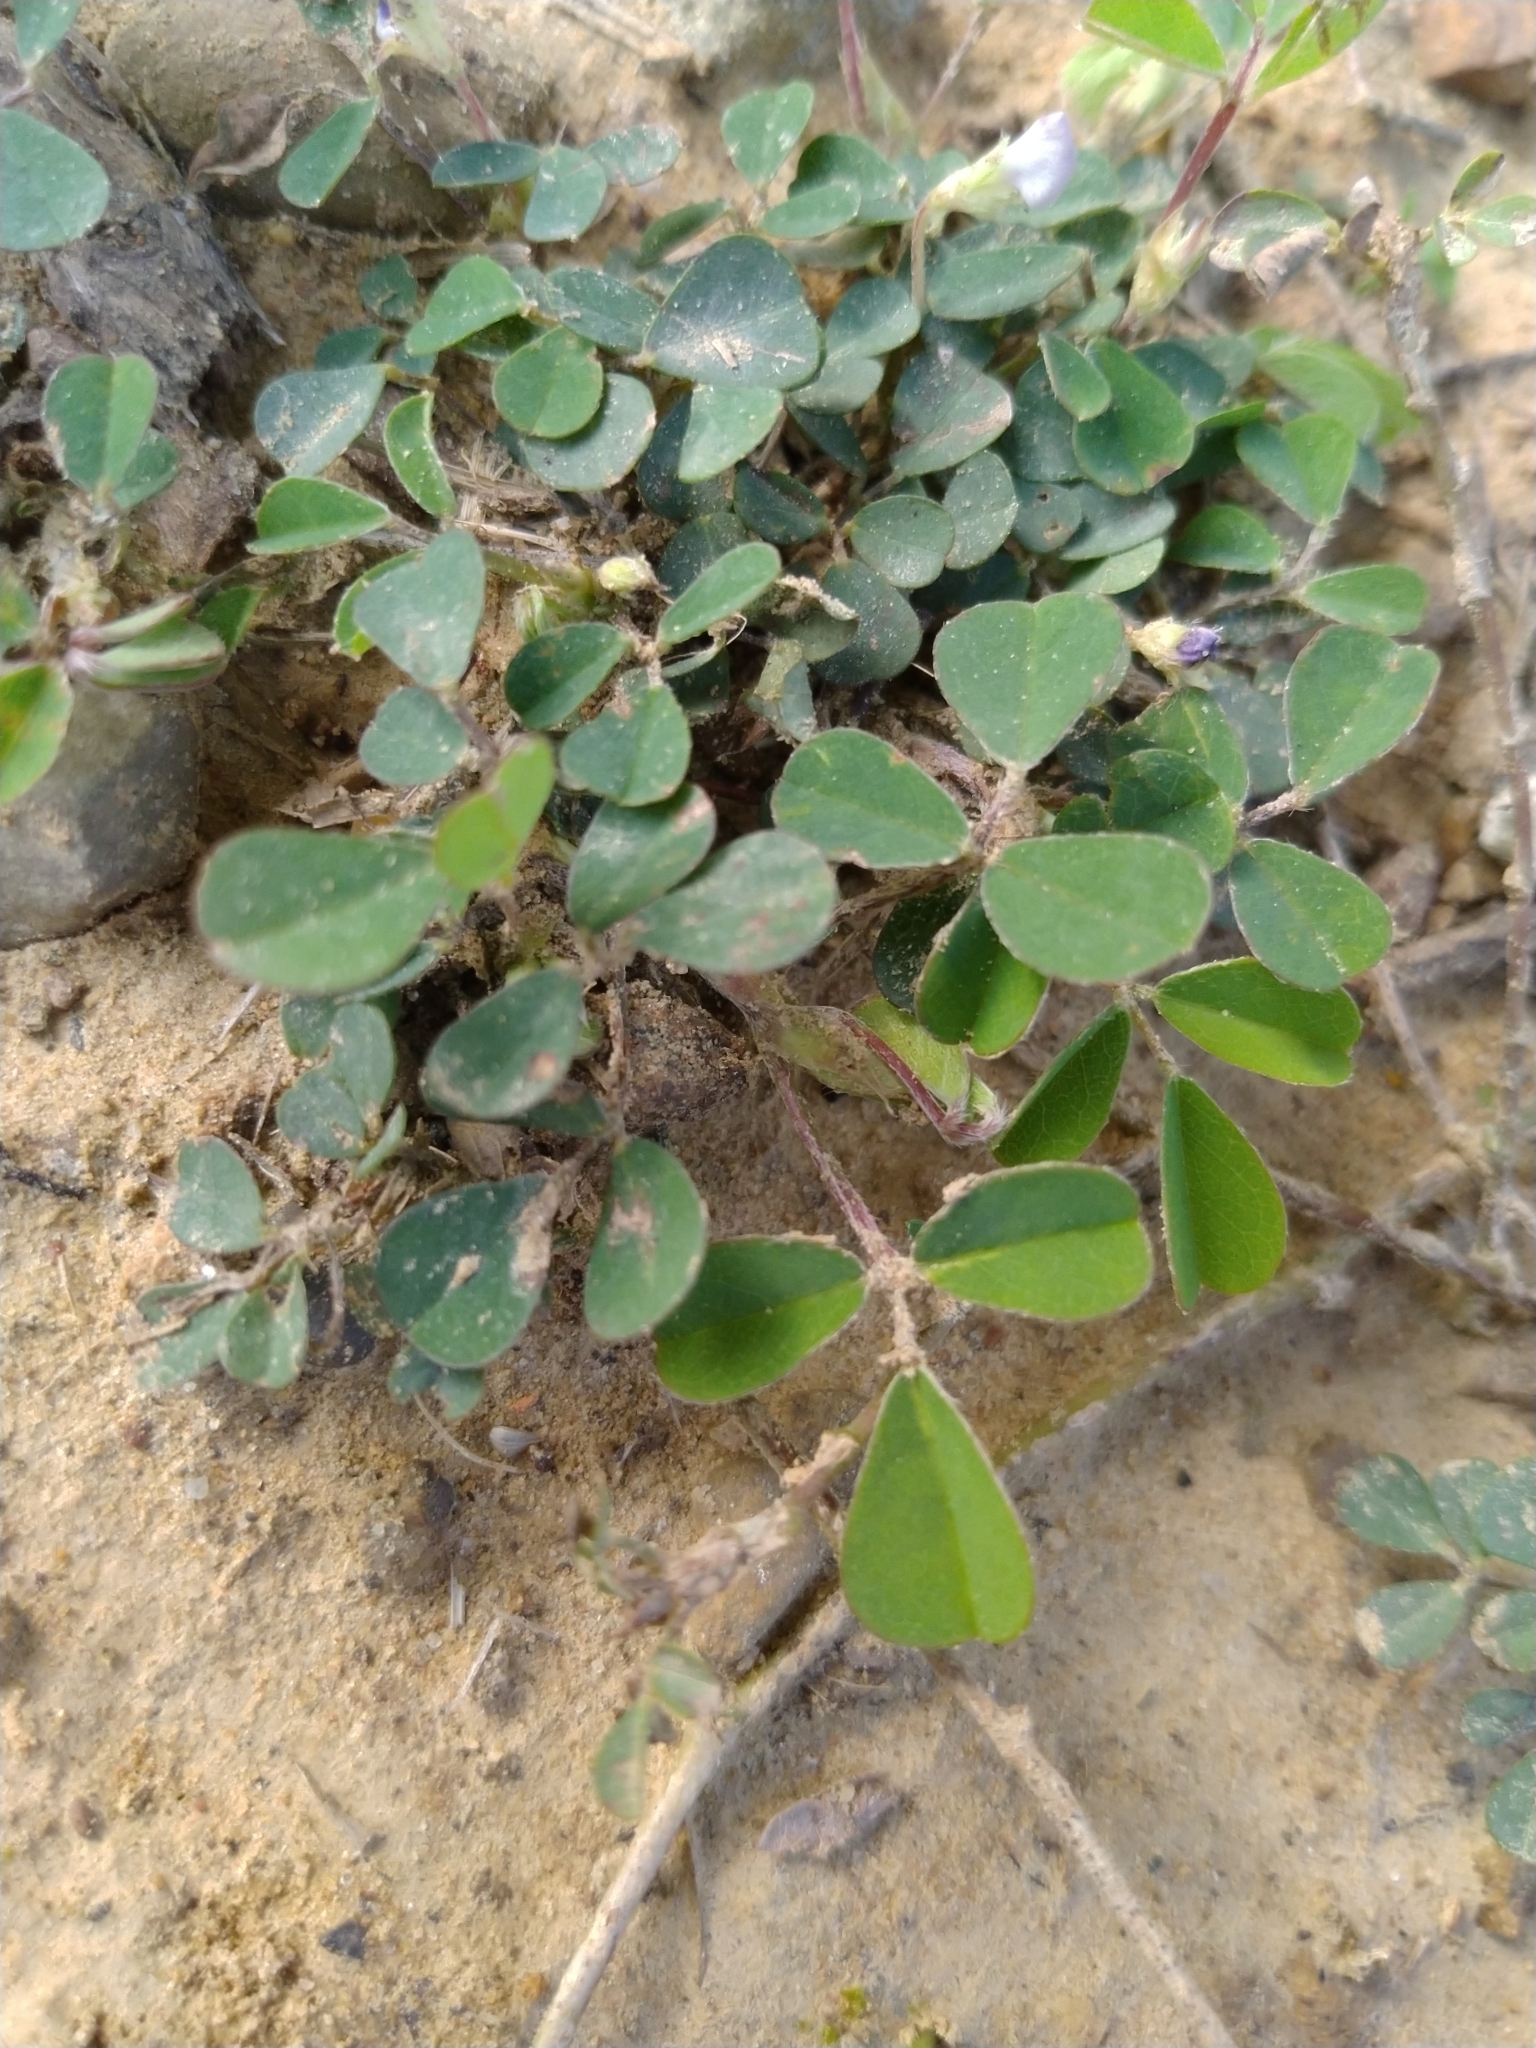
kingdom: Plantae
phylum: Tracheophyta
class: Magnoliopsida
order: Fabales
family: Fabaceae
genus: Grona
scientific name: Grona triflora
